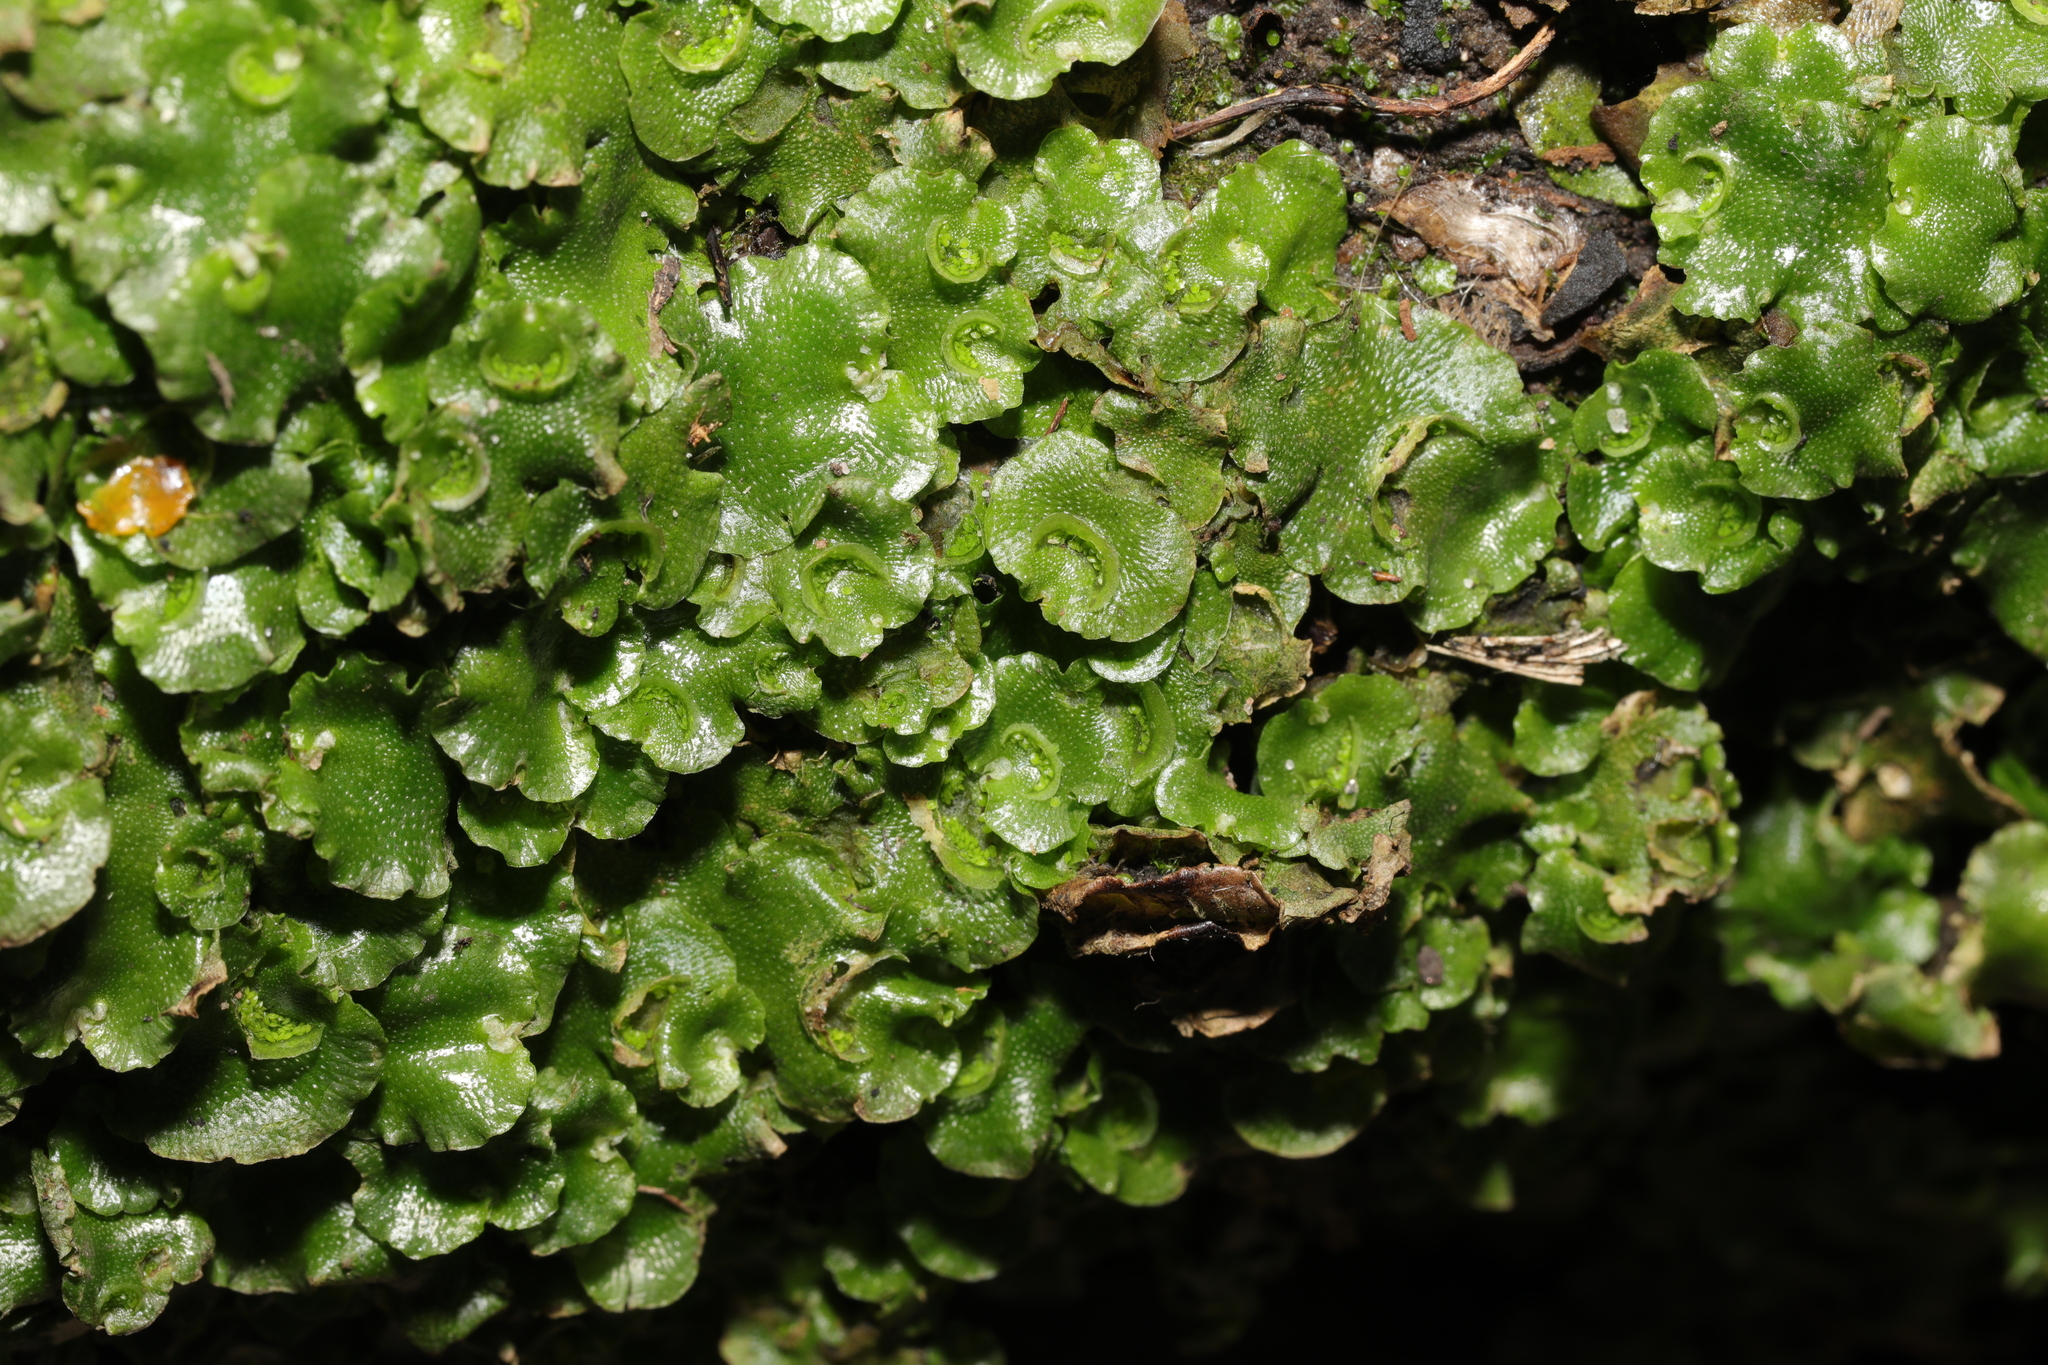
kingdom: Plantae
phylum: Marchantiophyta
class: Marchantiopsida
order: Lunulariales
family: Lunulariaceae
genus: Lunularia
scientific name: Lunularia cruciata
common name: Crescent-cup liverwort
